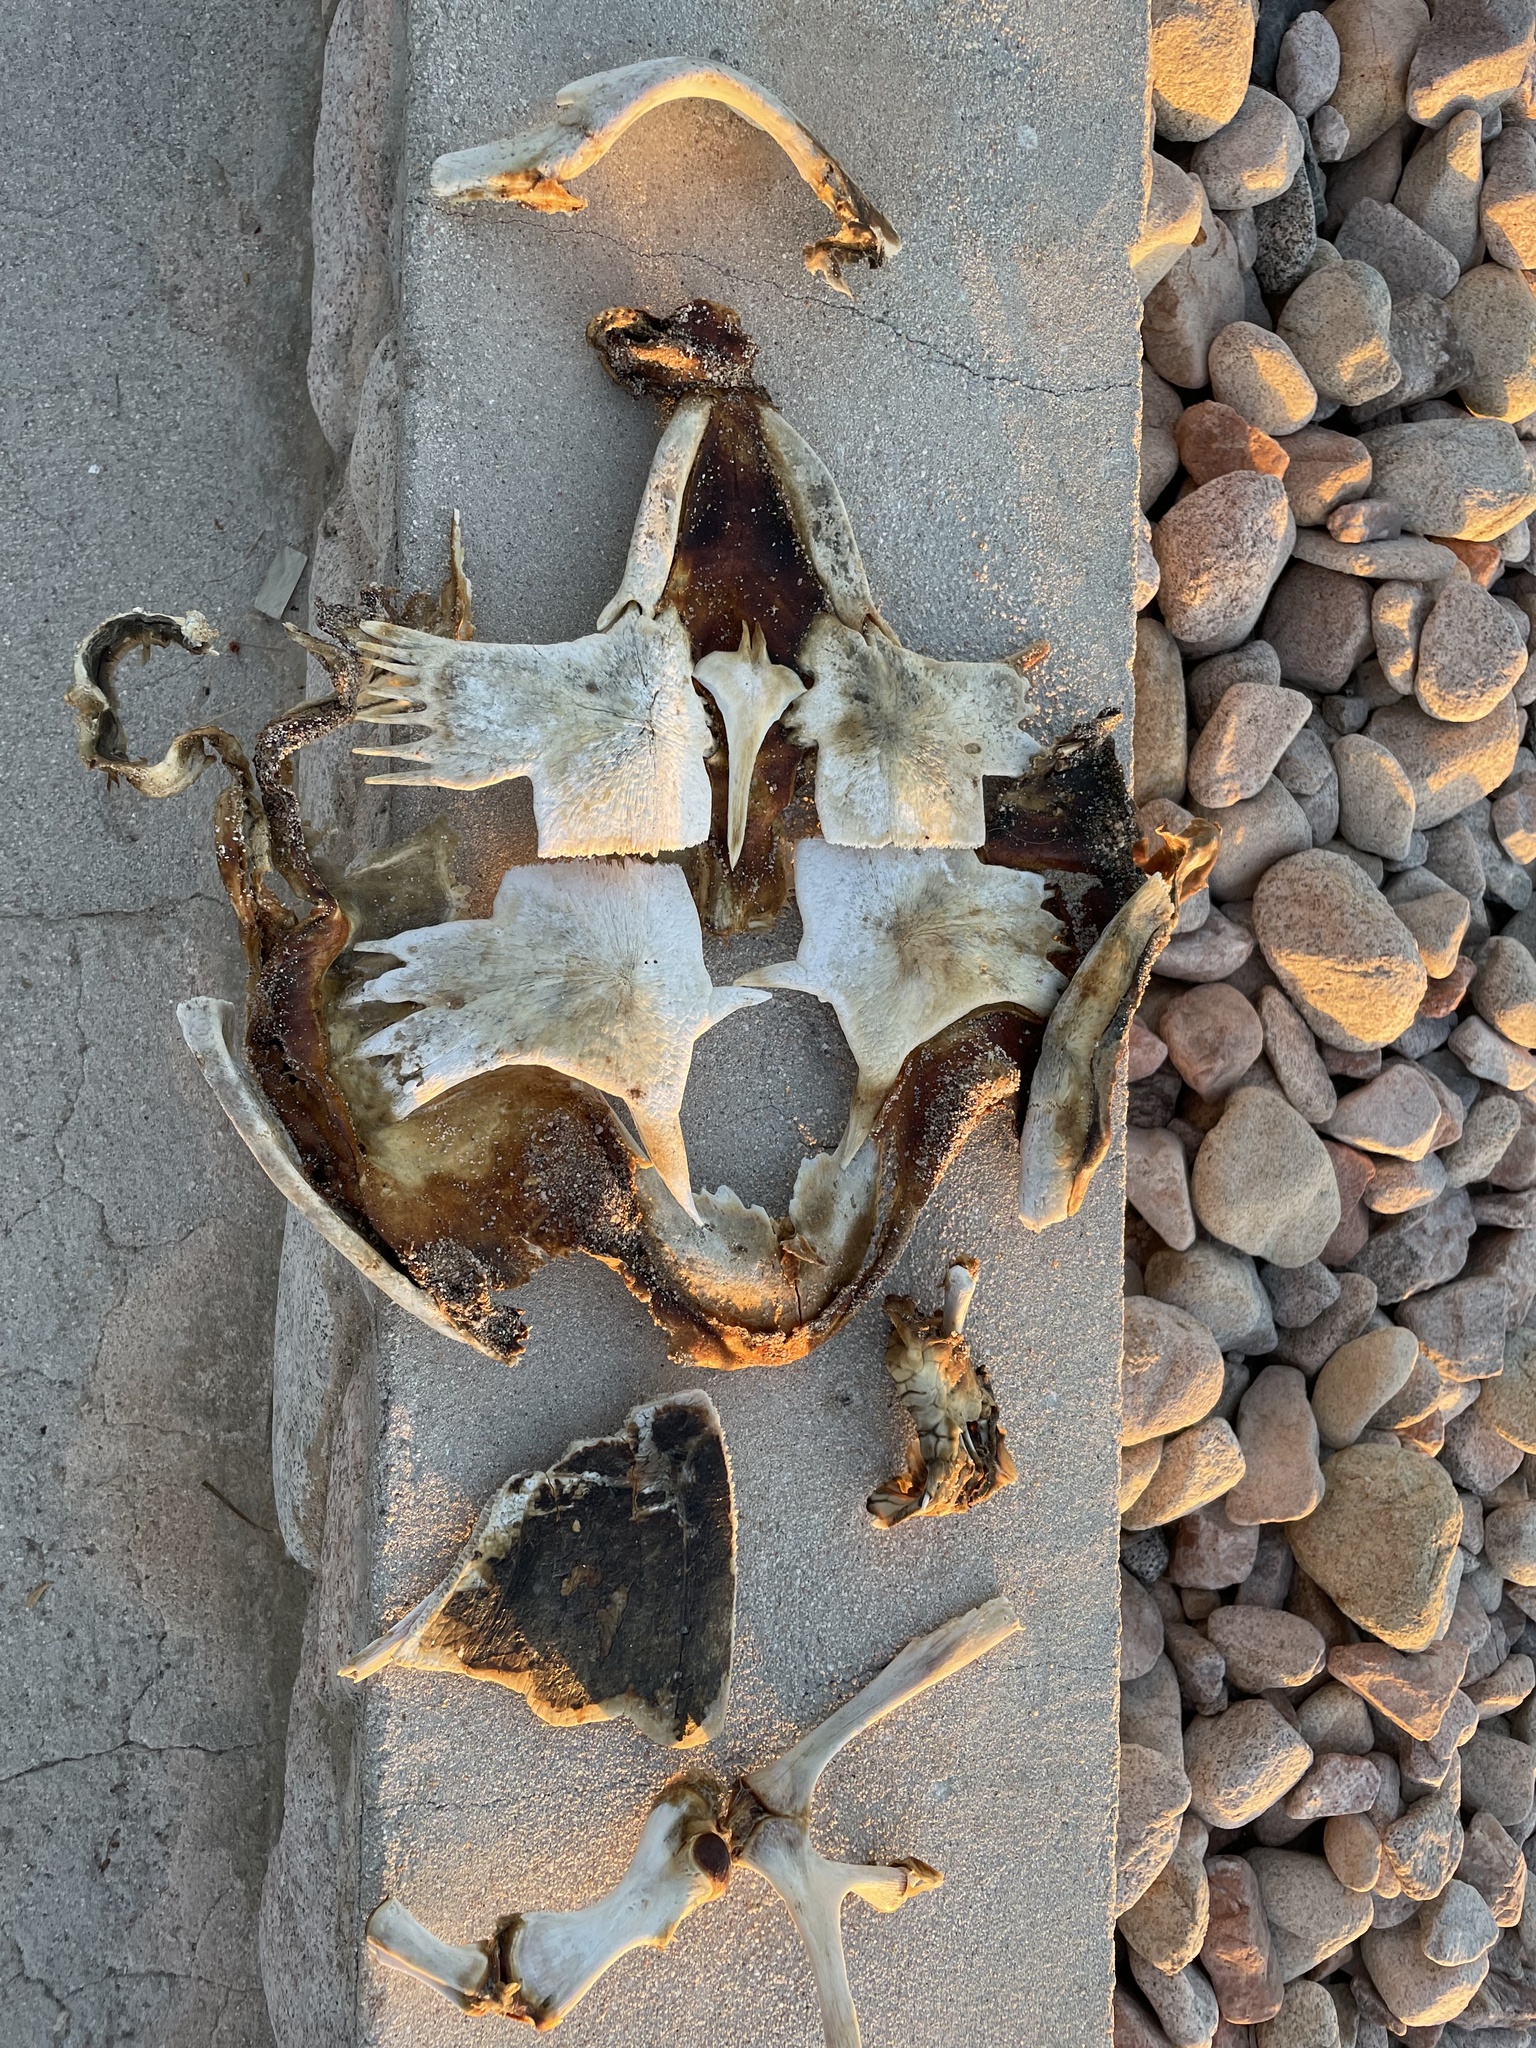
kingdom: Animalia
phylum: Chordata
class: Testudines
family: Cheloniidae
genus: Lepidochelys
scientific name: Lepidochelys olivacea
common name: Olive ridley
